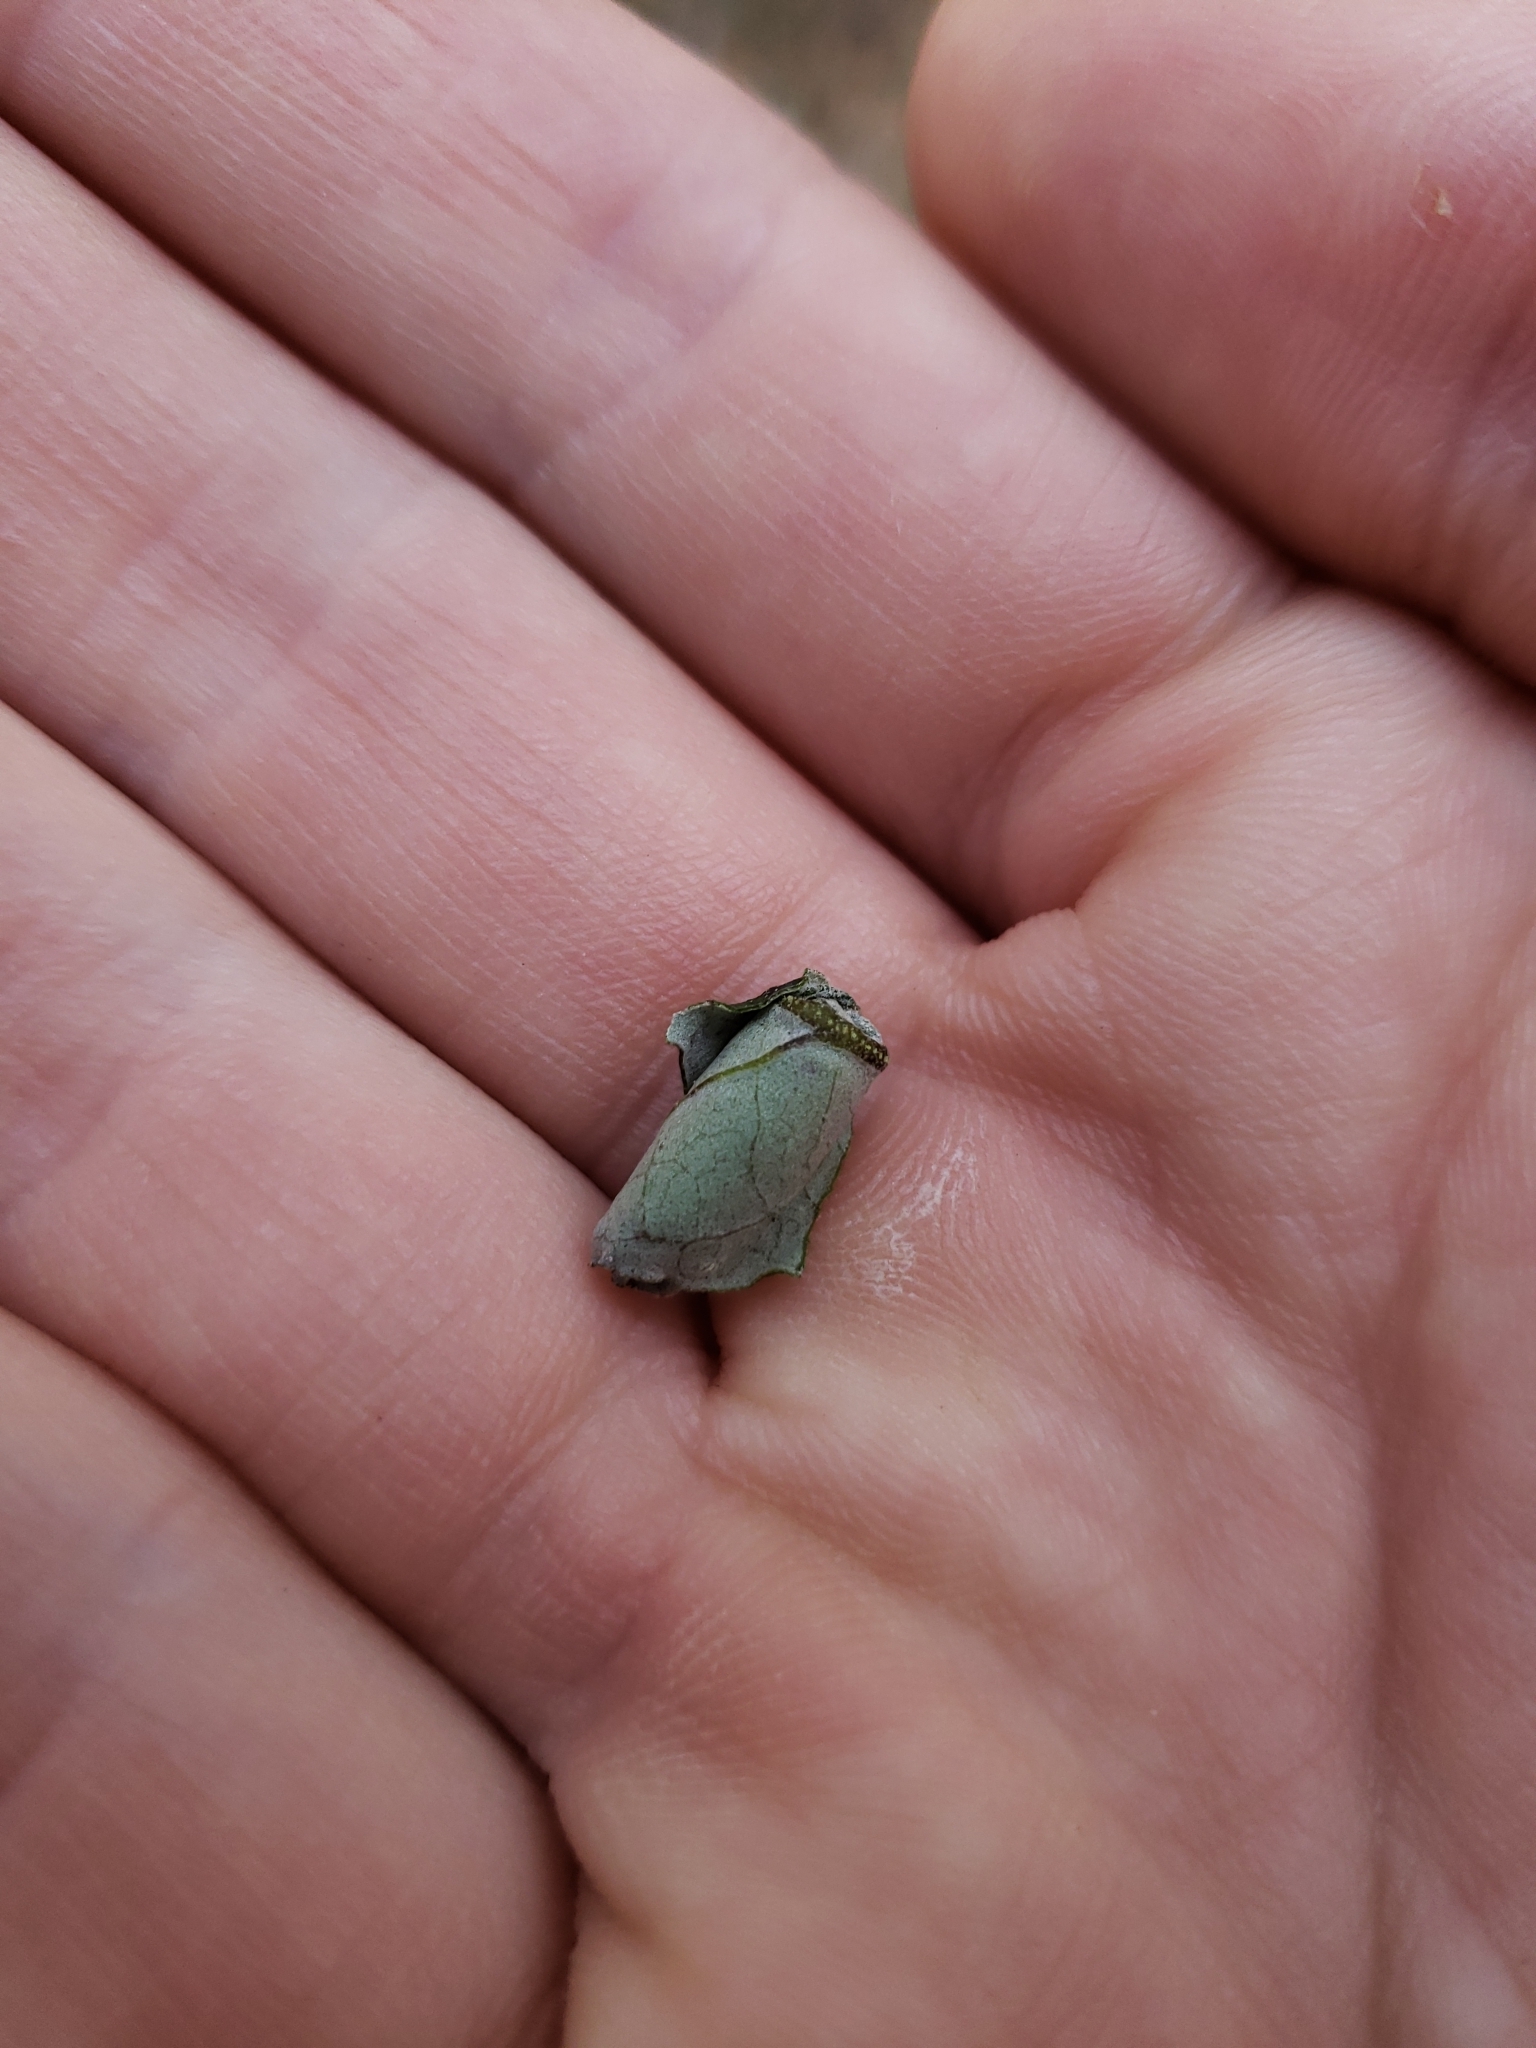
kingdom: Animalia
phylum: Arthropoda
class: Insecta
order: Coleoptera
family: Attelabidae
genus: Homoeolabus
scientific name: Homoeolabus analis
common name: Oak leaf rolling weevil
